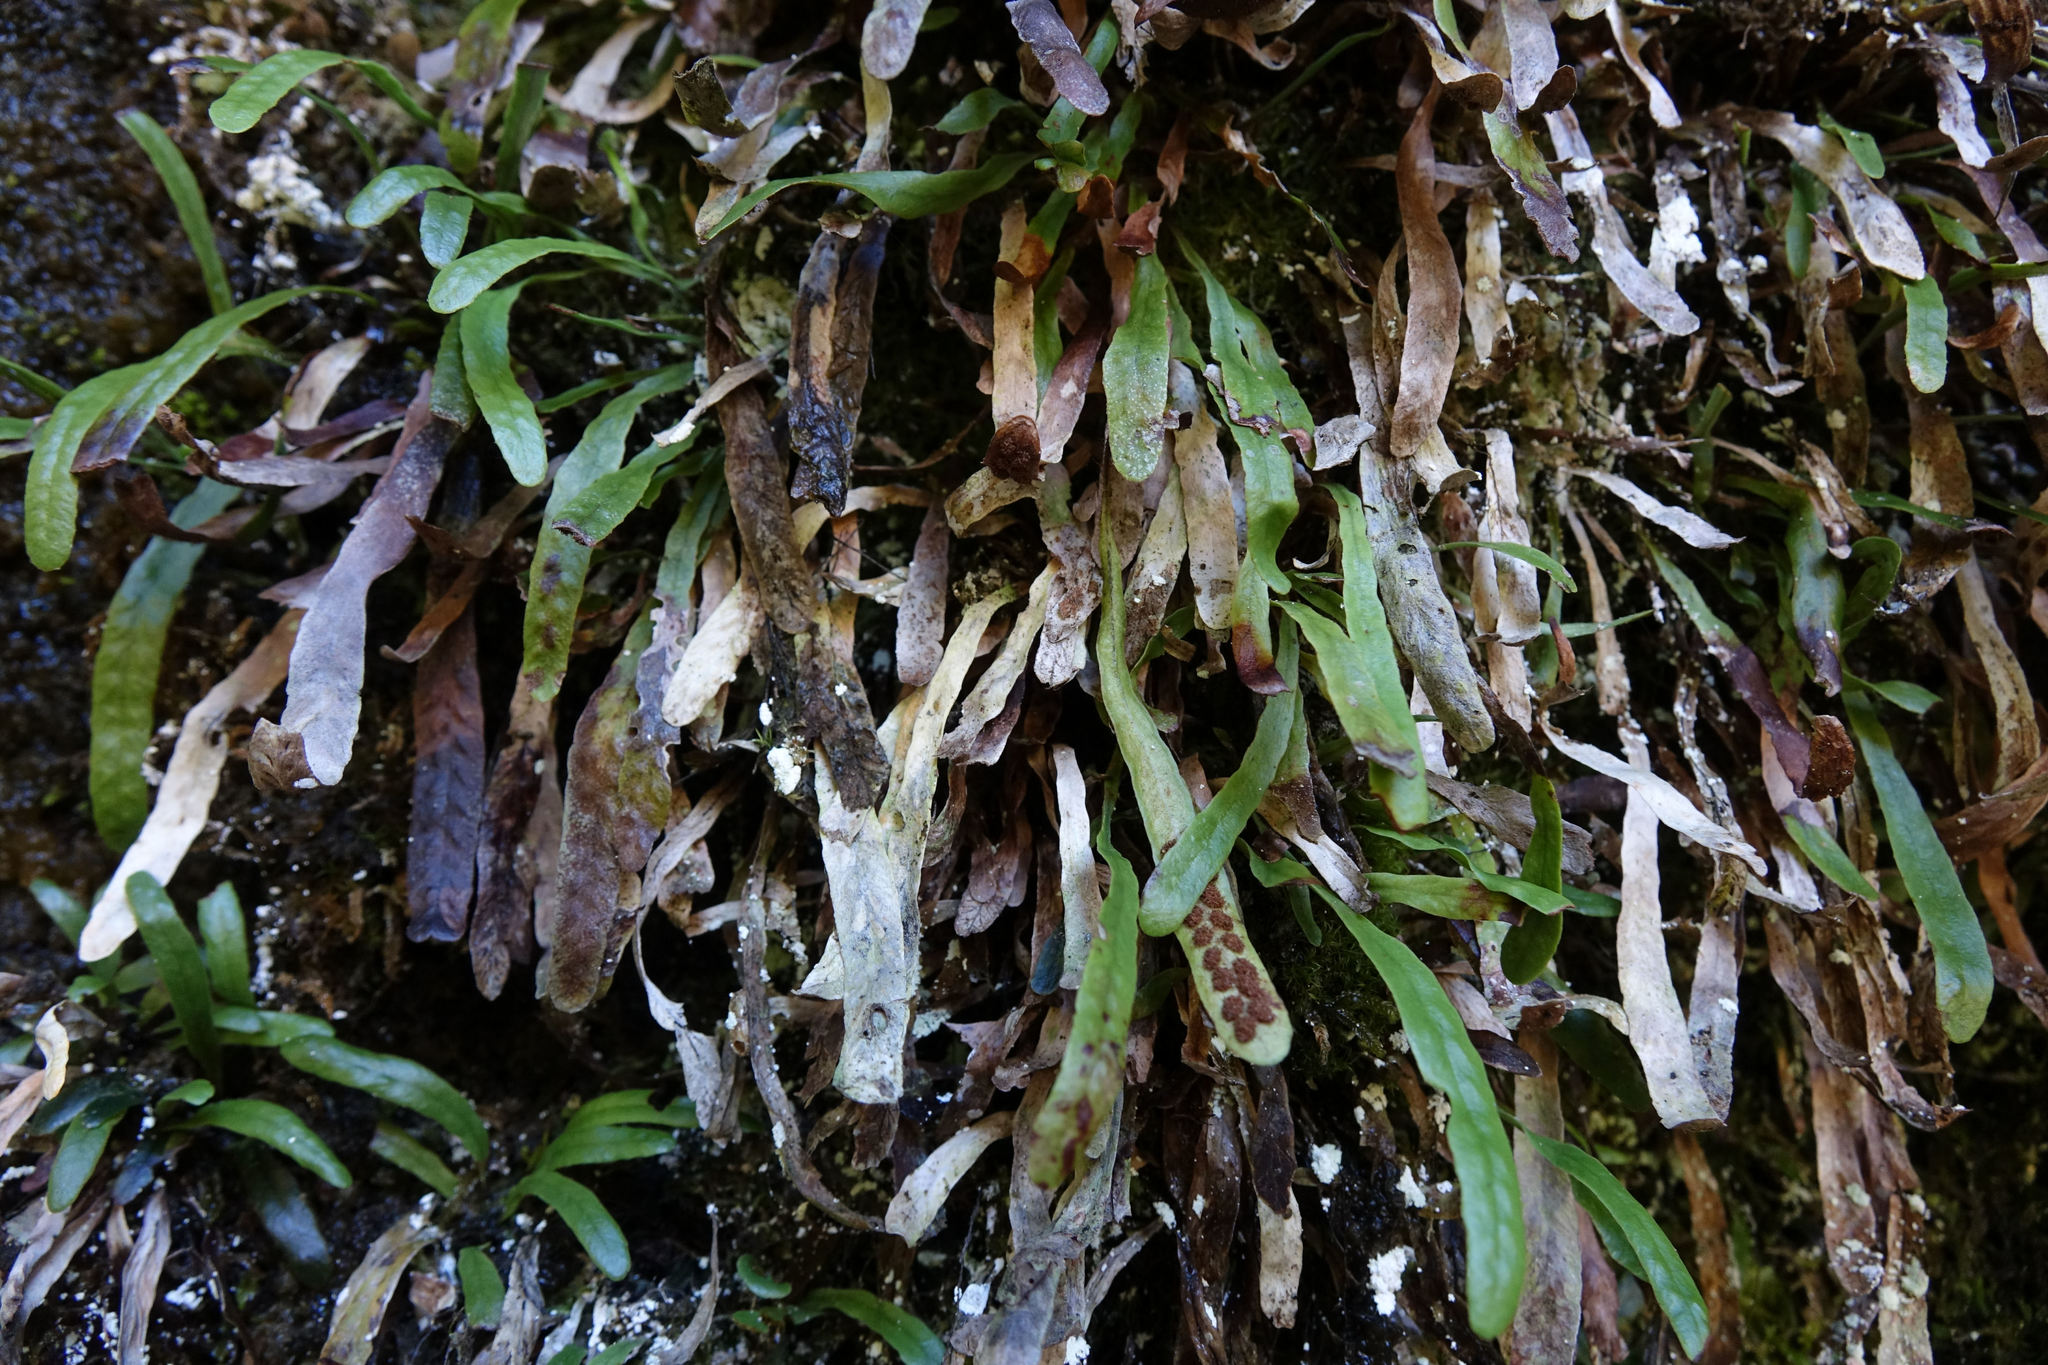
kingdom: Plantae
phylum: Tracheophyta
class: Polypodiopsida
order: Polypodiales
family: Polypodiaceae
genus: Notogrammitis
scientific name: Notogrammitis patagonica
